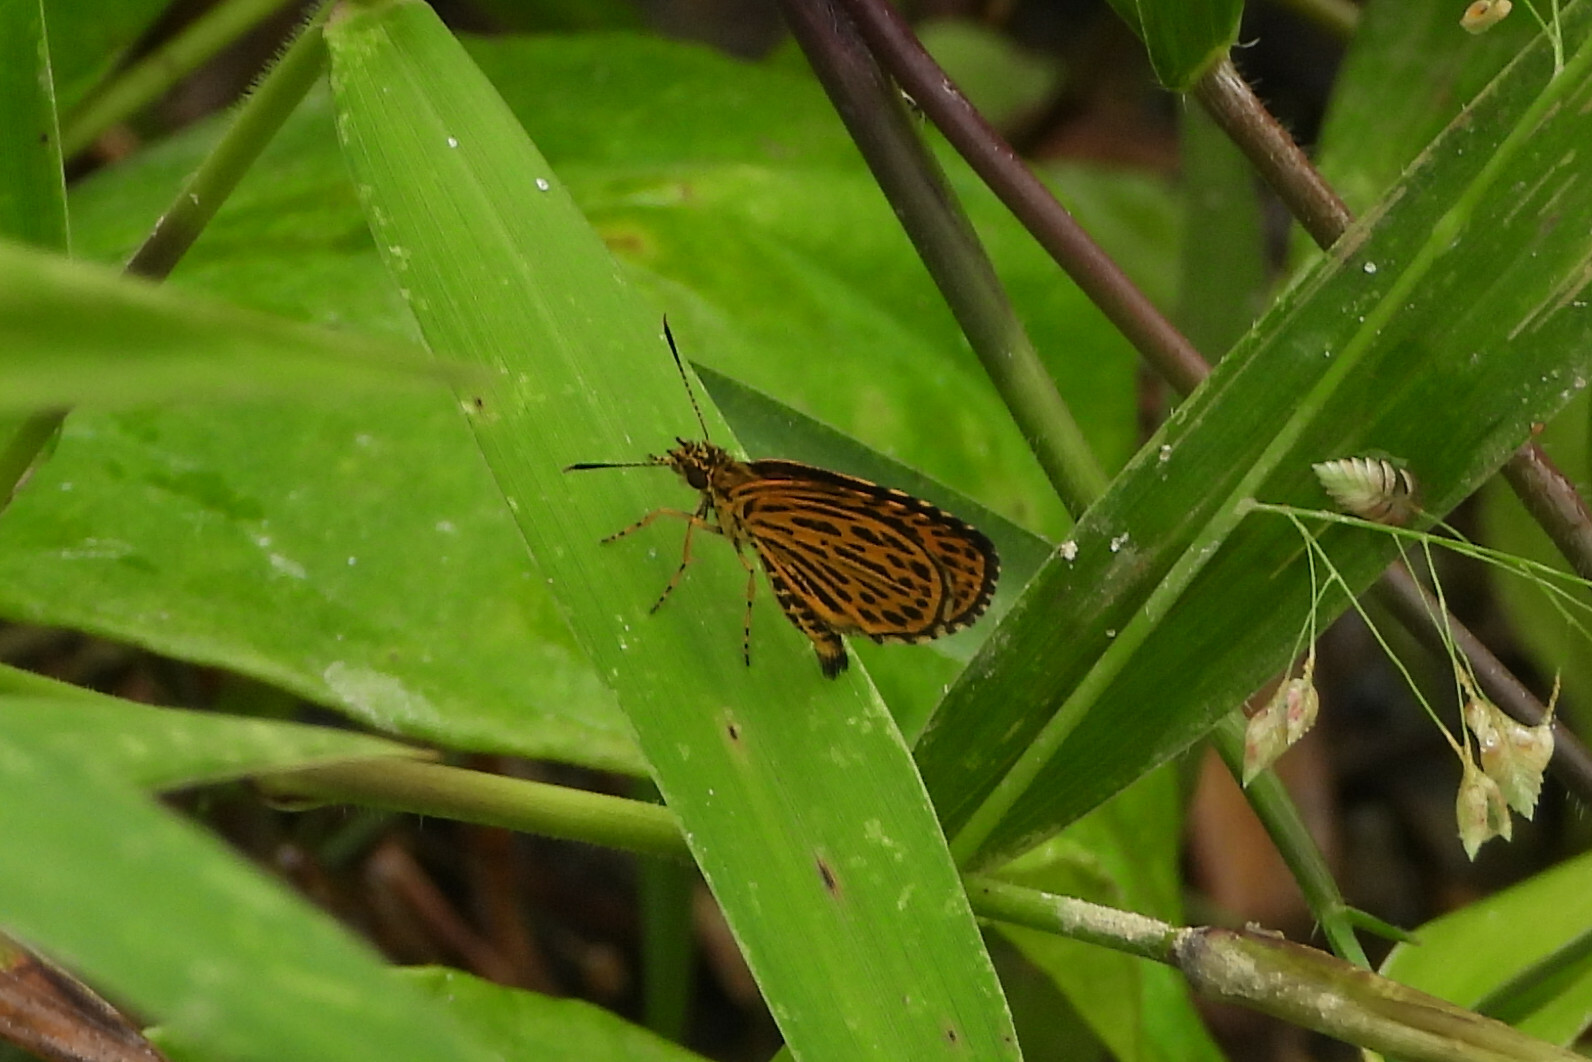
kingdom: Animalia
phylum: Arthropoda
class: Insecta
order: Lepidoptera
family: Hesperiidae
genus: Ampittia
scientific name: Ampittia subvittatus
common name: Tiger hopper
